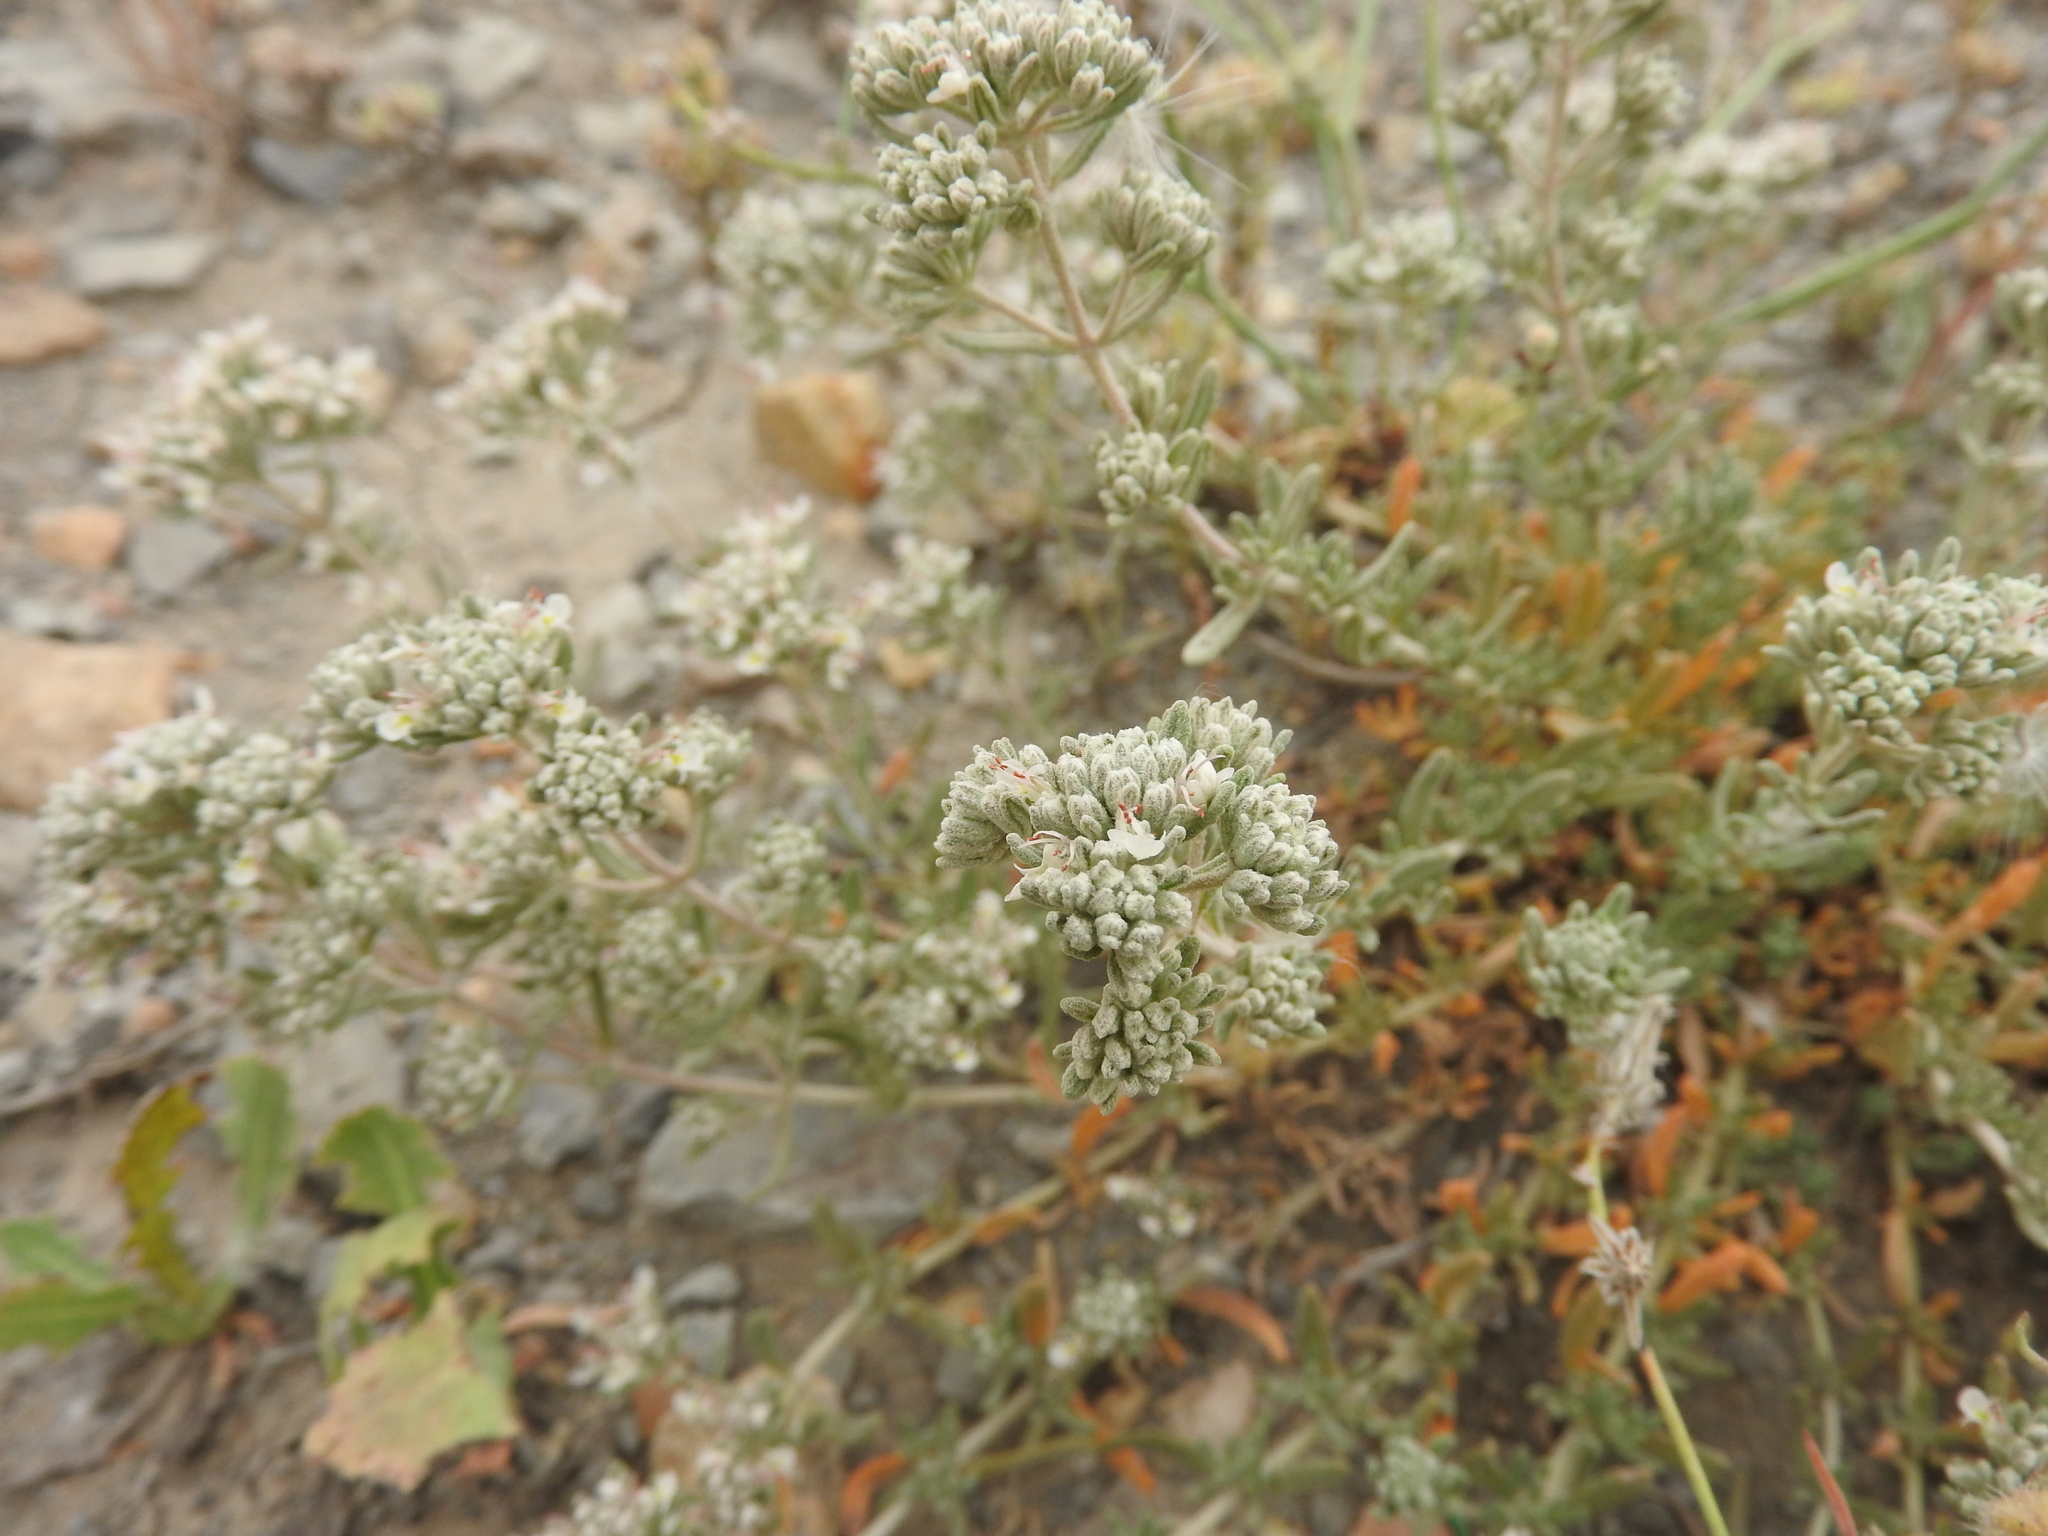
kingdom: Plantae
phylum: Tracheophyta
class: Magnoliopsida
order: Lamiales
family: Lamiaceae
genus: Teucrium
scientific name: Teucrium capitatum
